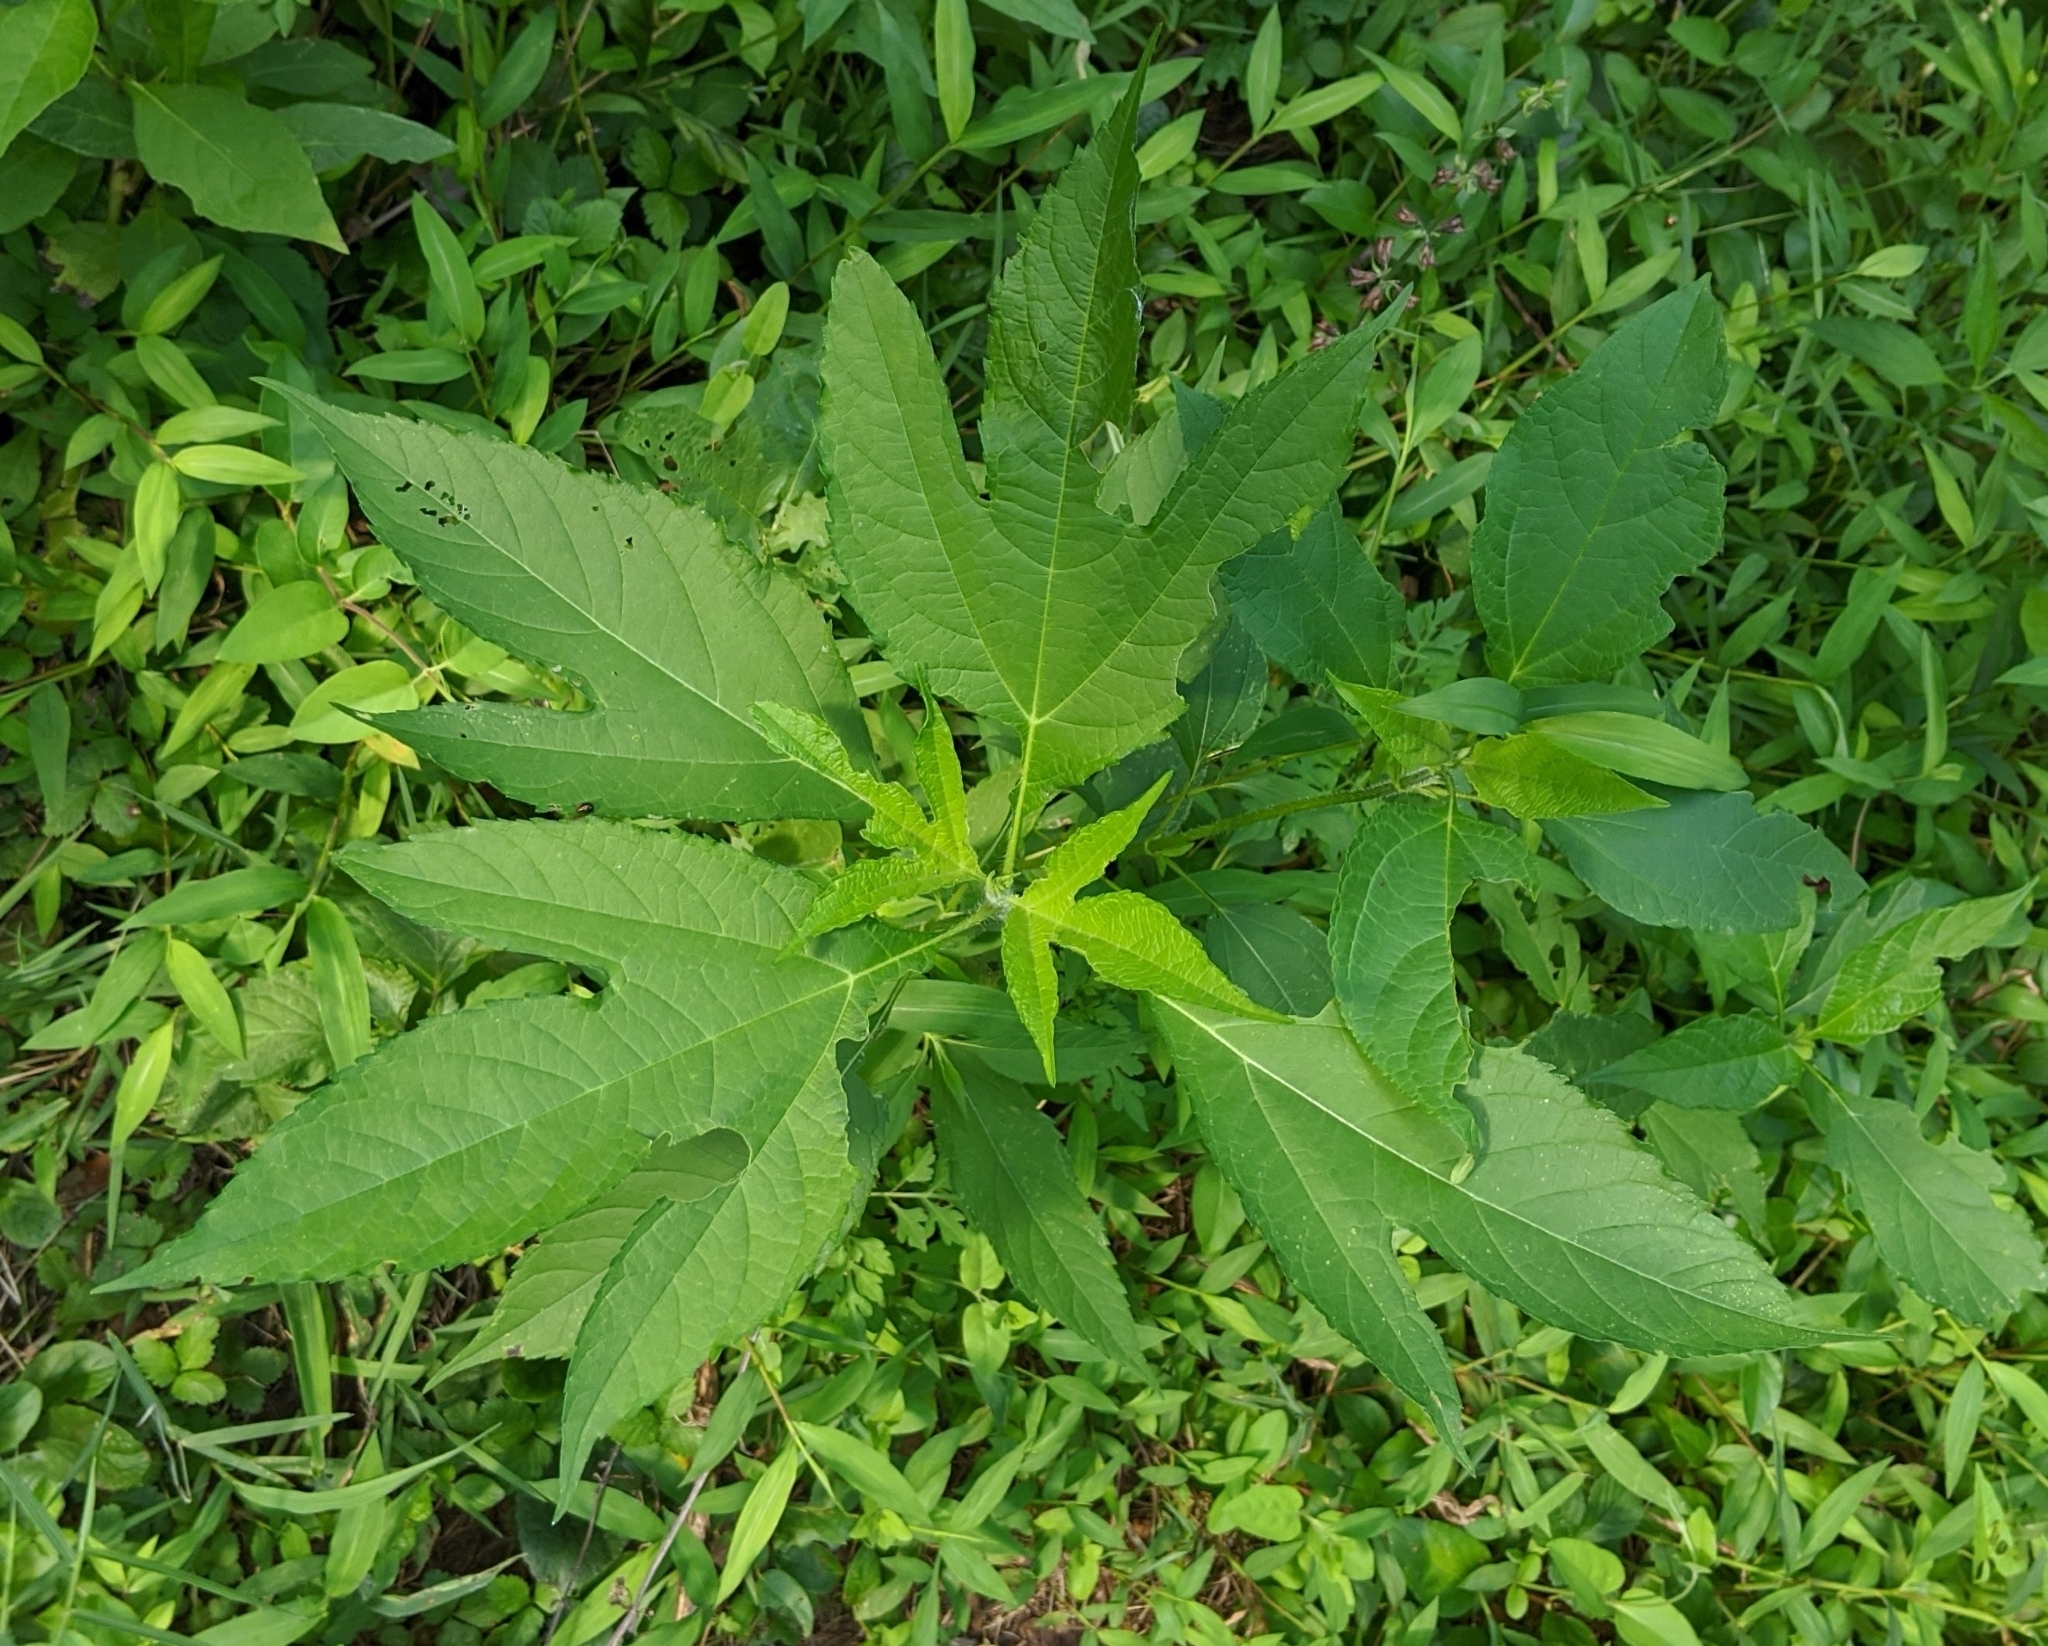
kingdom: Plantae
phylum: Tracheophyta
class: Magnoliopsida
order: Asterales
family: Asteraceae
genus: Ambrosia
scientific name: Ambrosia trifida
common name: Giant ragweed
